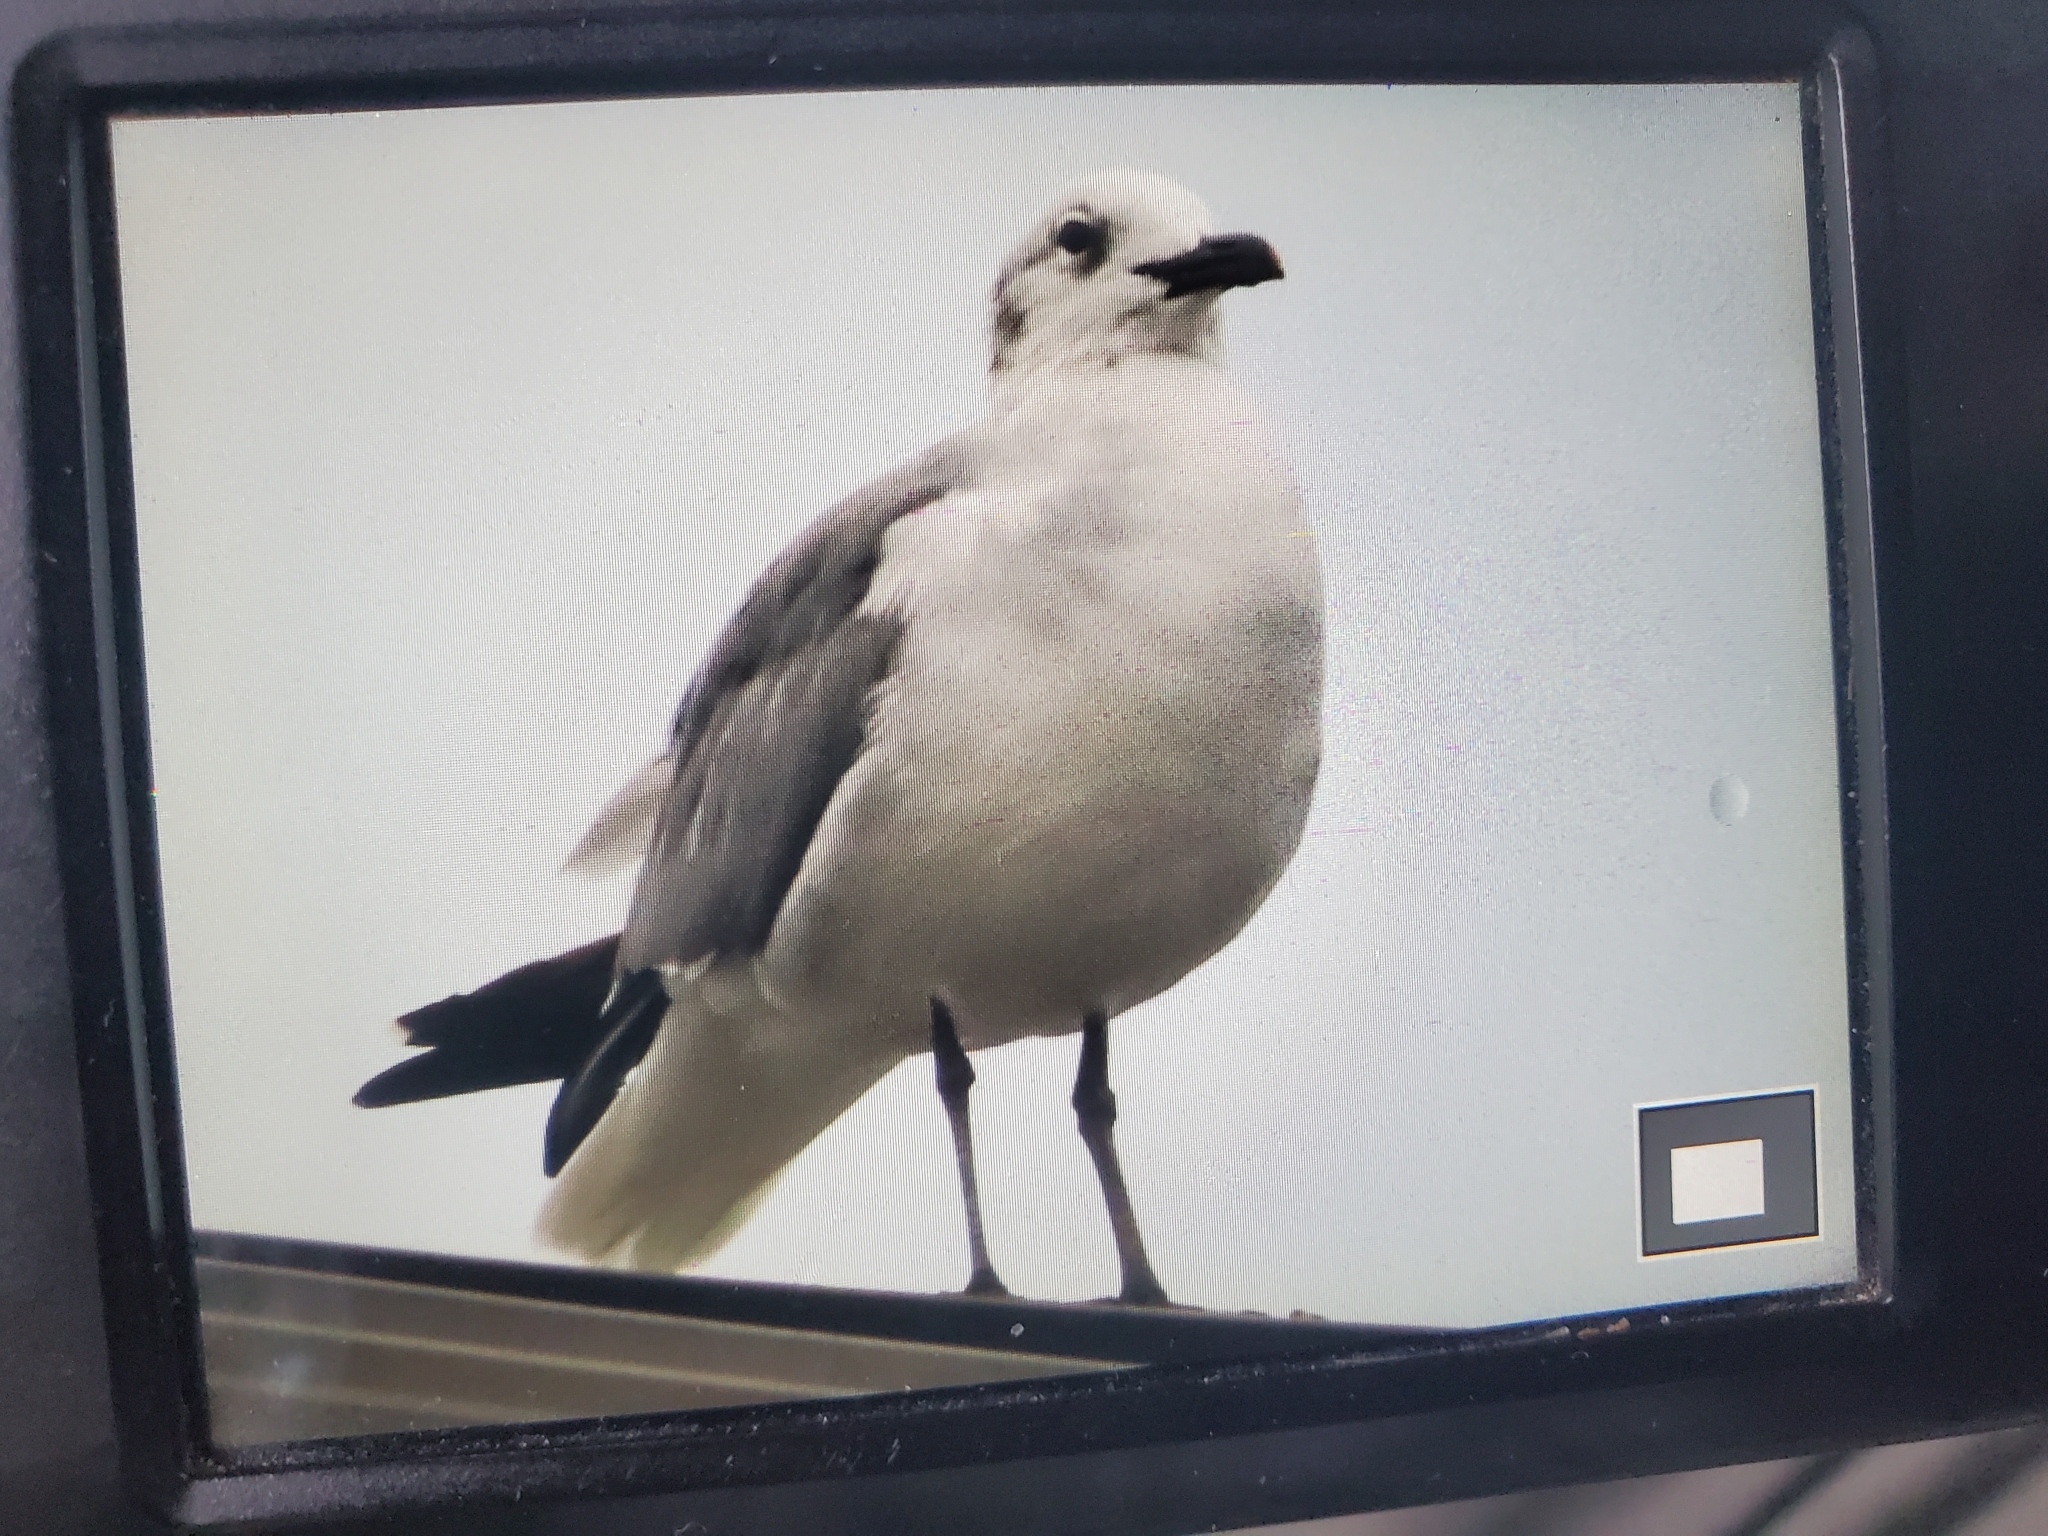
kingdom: Animalia
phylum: Chordata
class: Aves
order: Charadriiformes
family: Laridae
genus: Leucophaeus
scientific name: Leucophaeus atricilla
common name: Laughing gull
